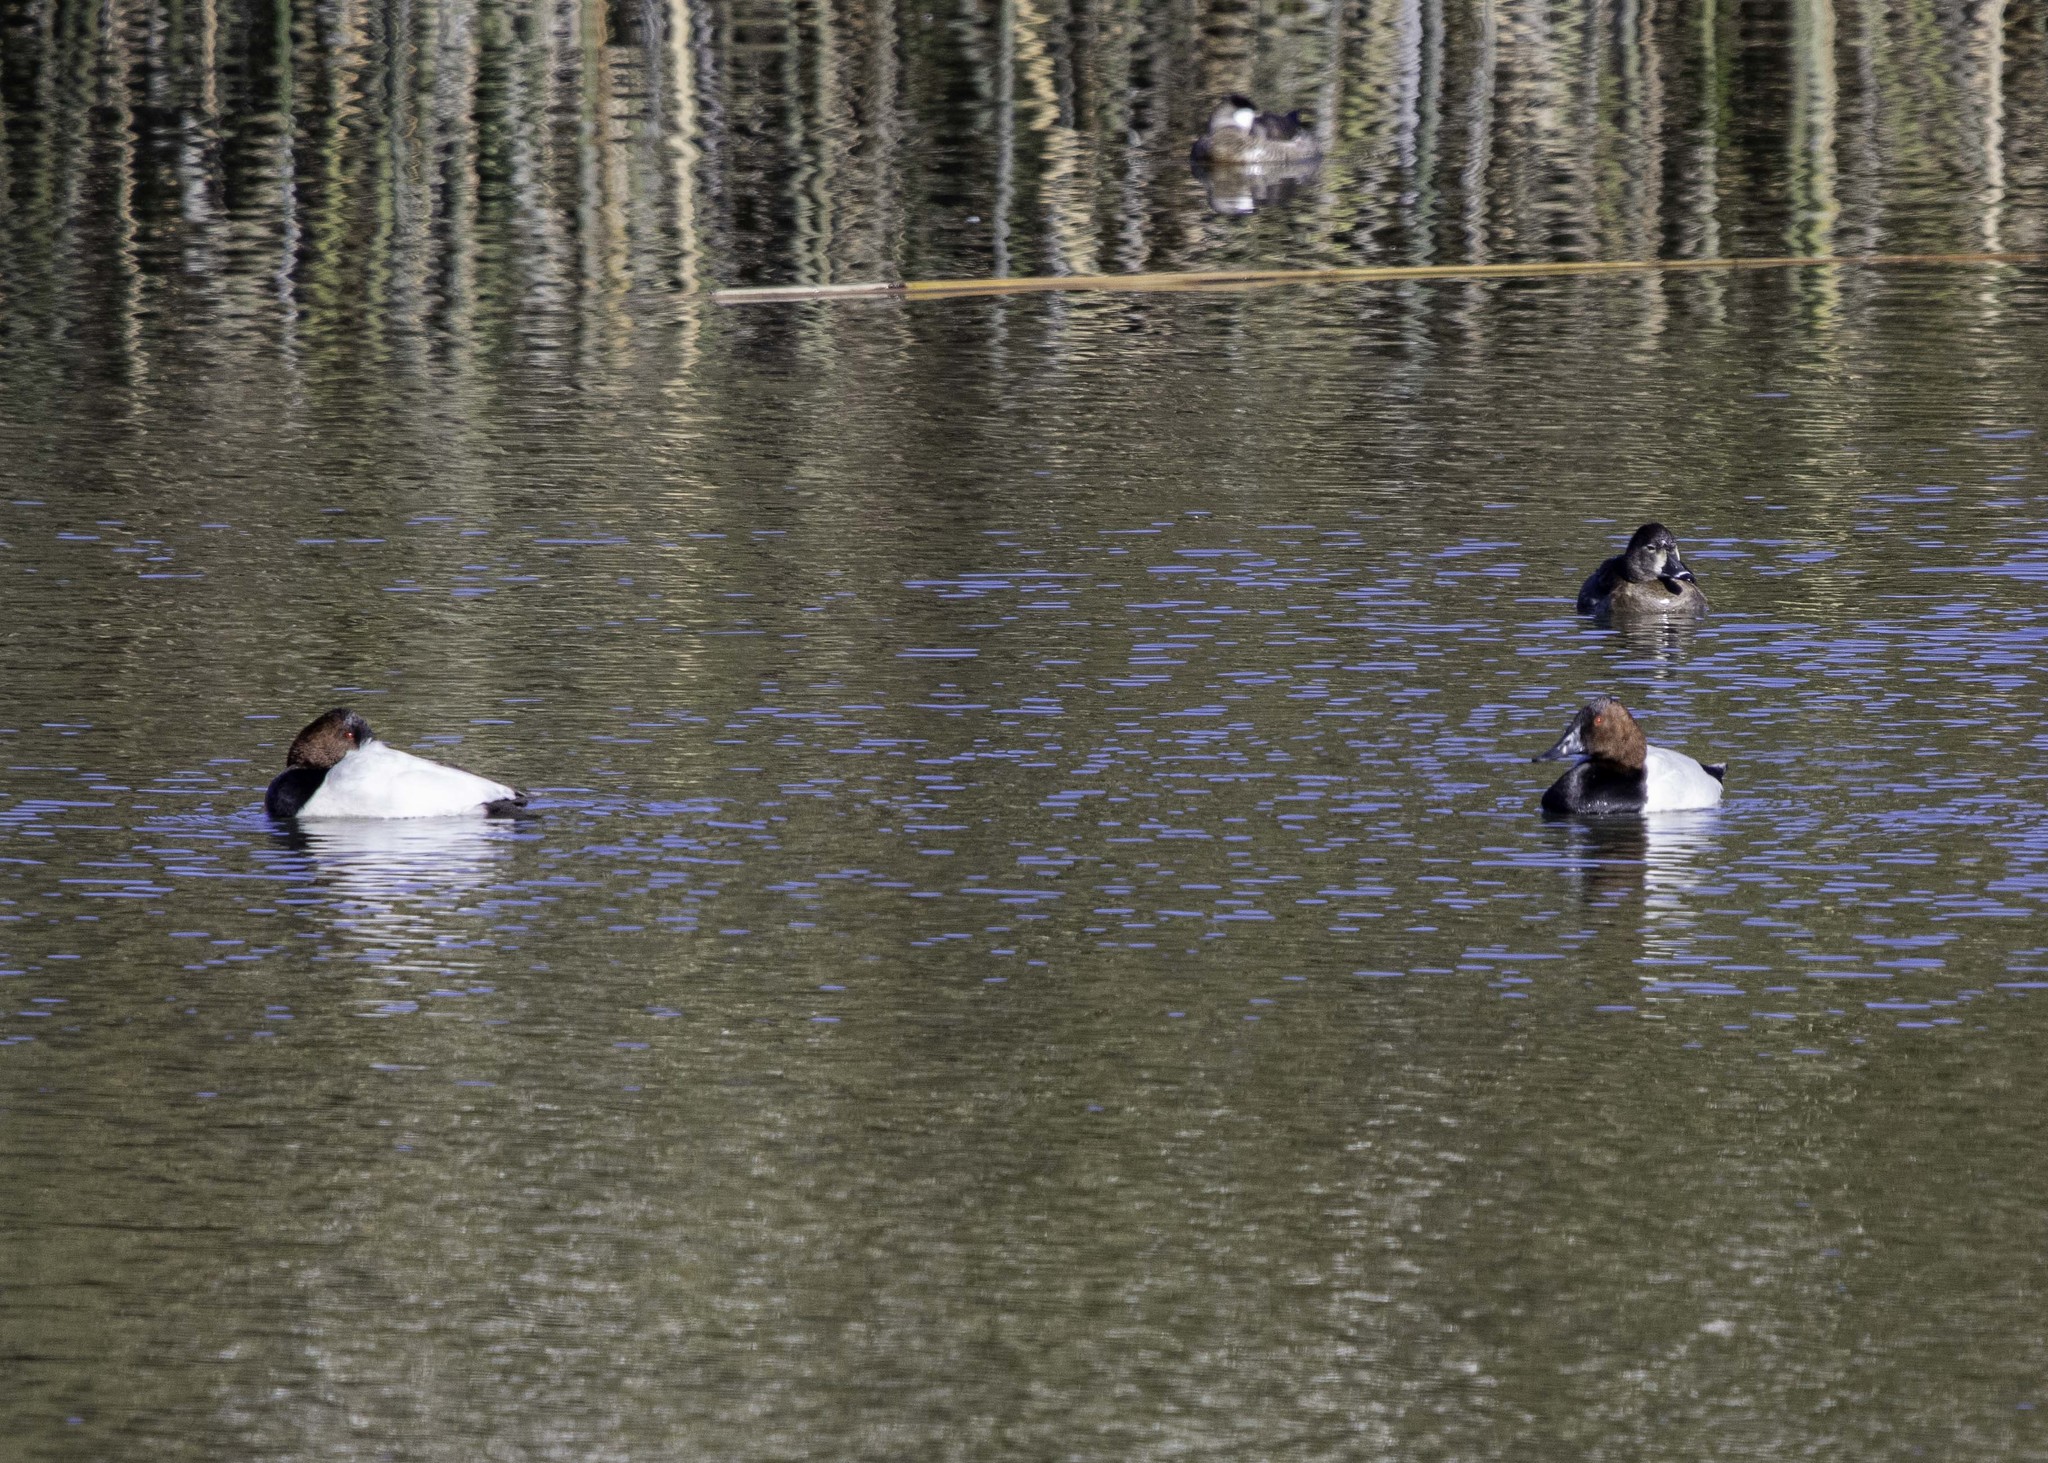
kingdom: Animalia
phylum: Chordata
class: Aves
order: Anseriformes
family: Anatidae
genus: Aythya
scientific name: Aythya valisineria
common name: Canvasback
